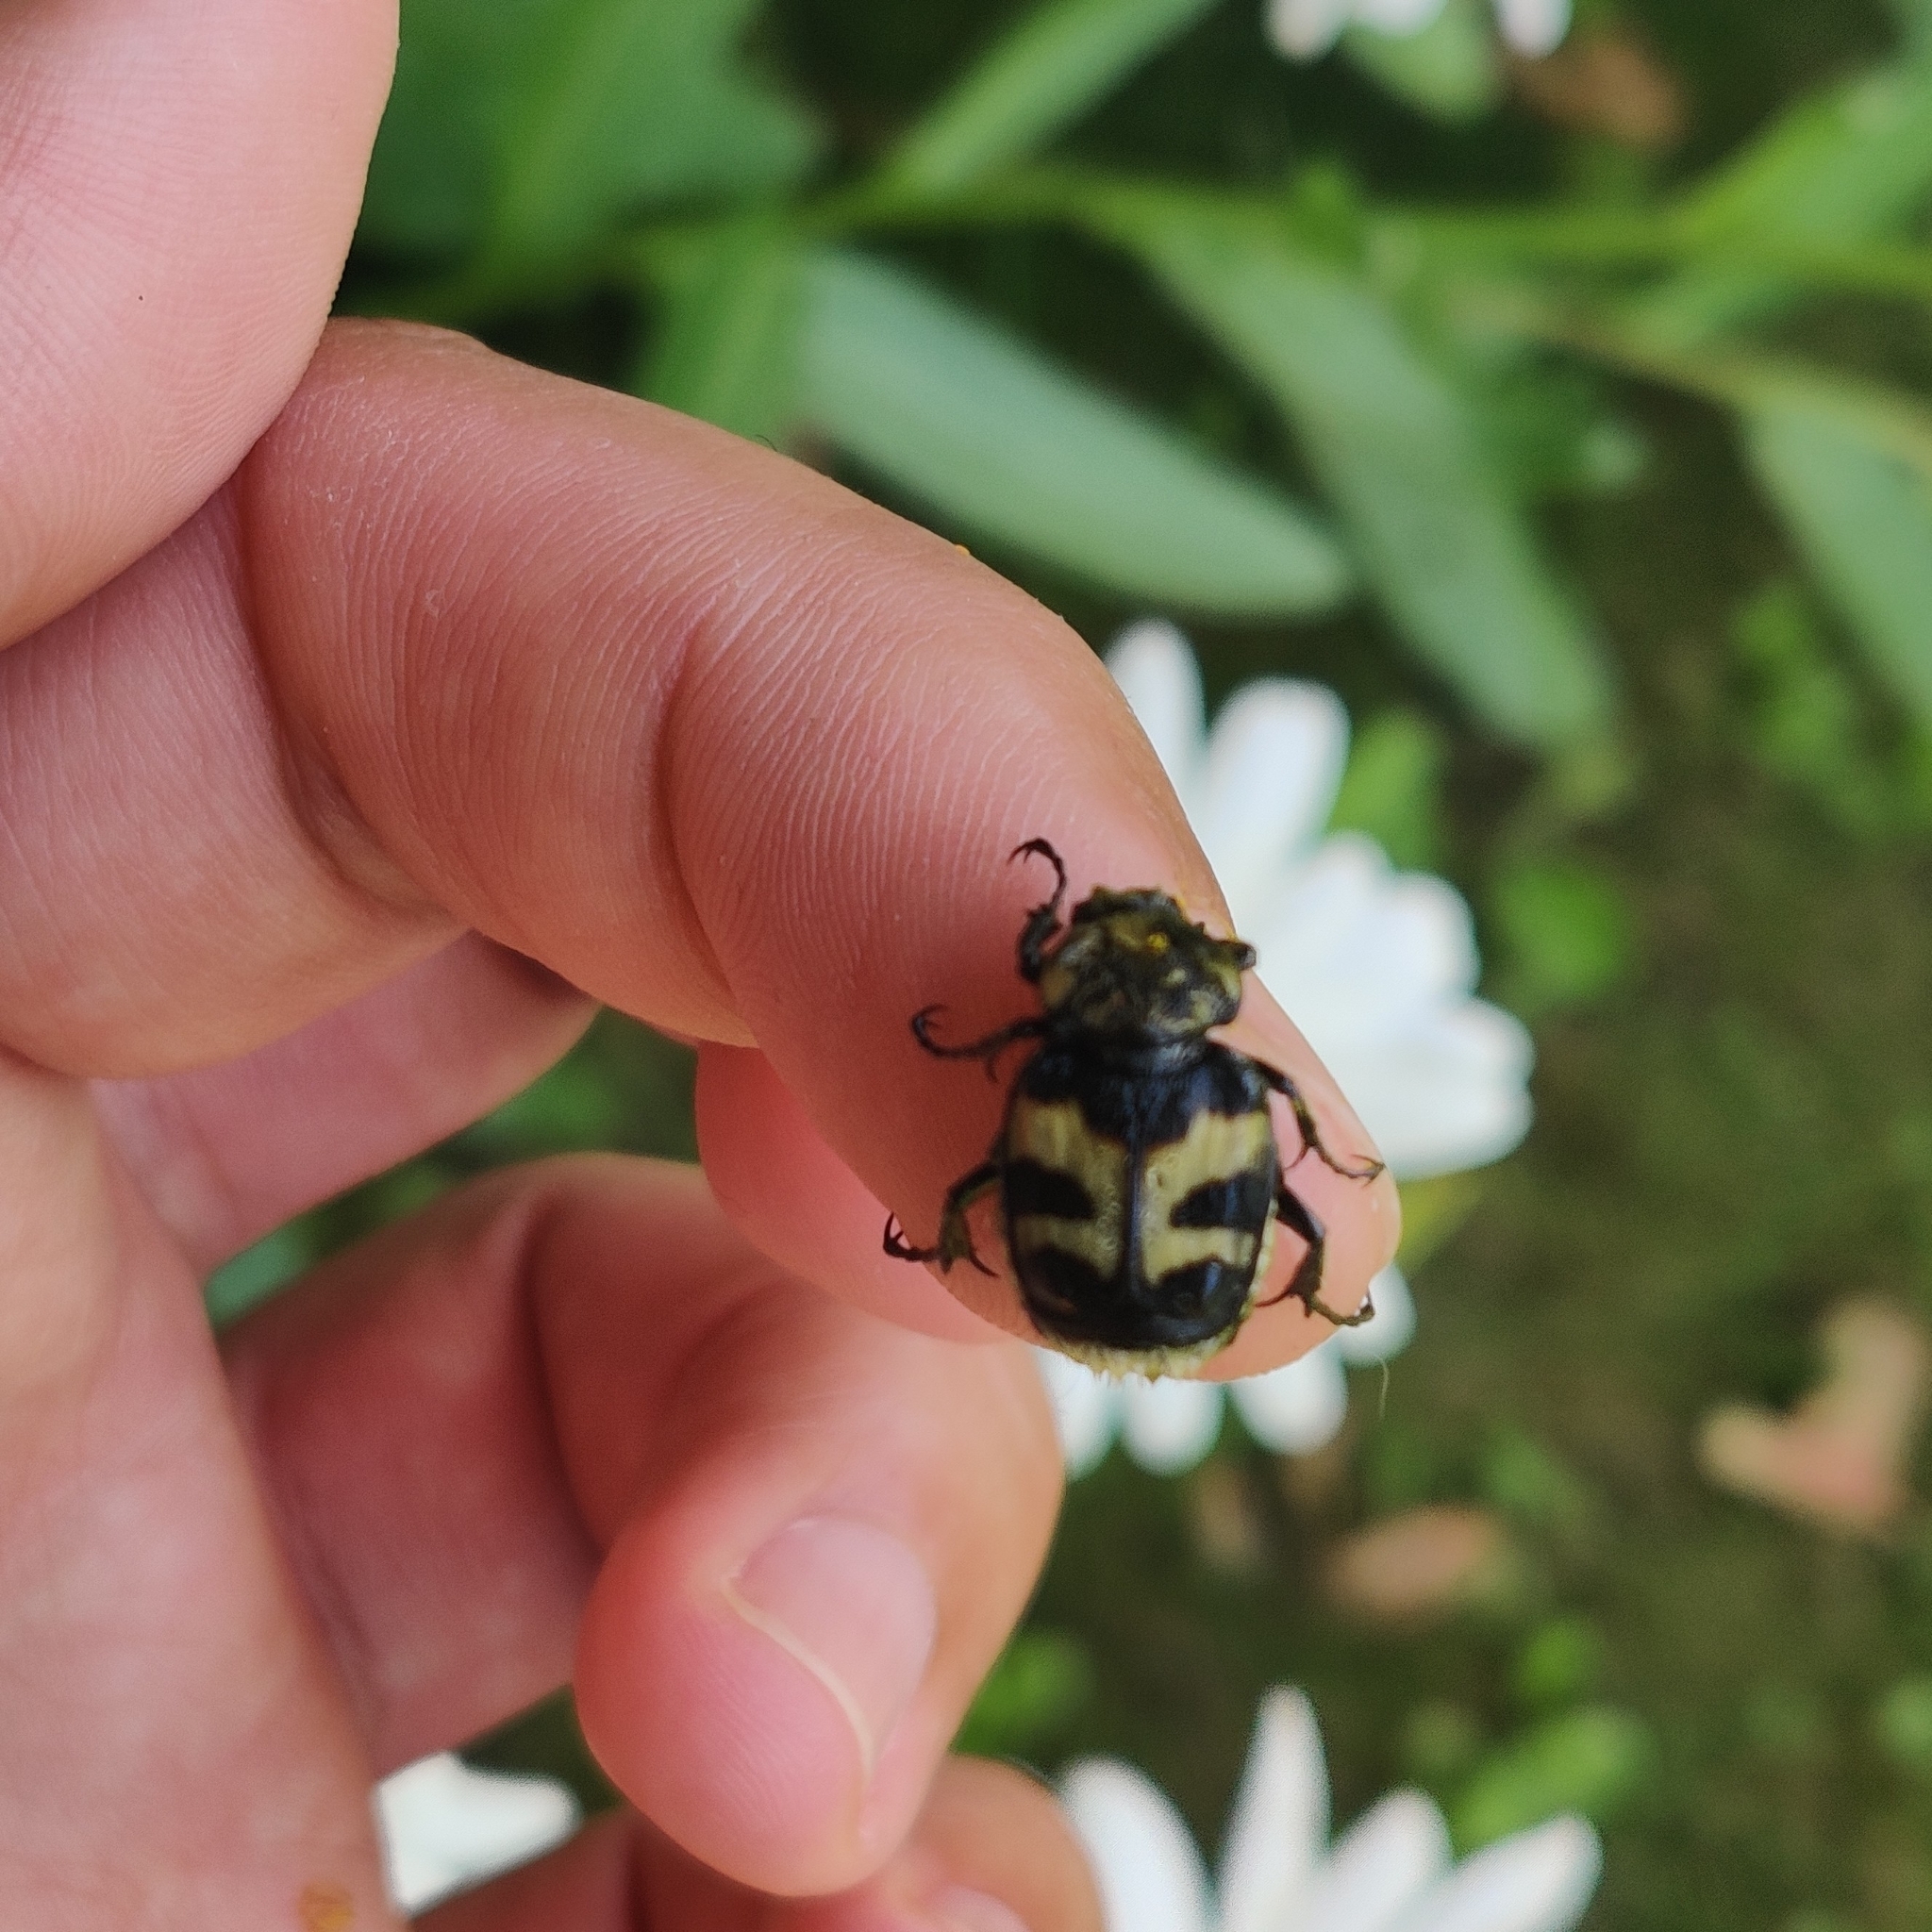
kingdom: Animalia
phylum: Arthropoda
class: Insecta
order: Coleoptera
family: Scarabaeidae
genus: Trichius
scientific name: Trichius fasciatus
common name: Bee beetle
